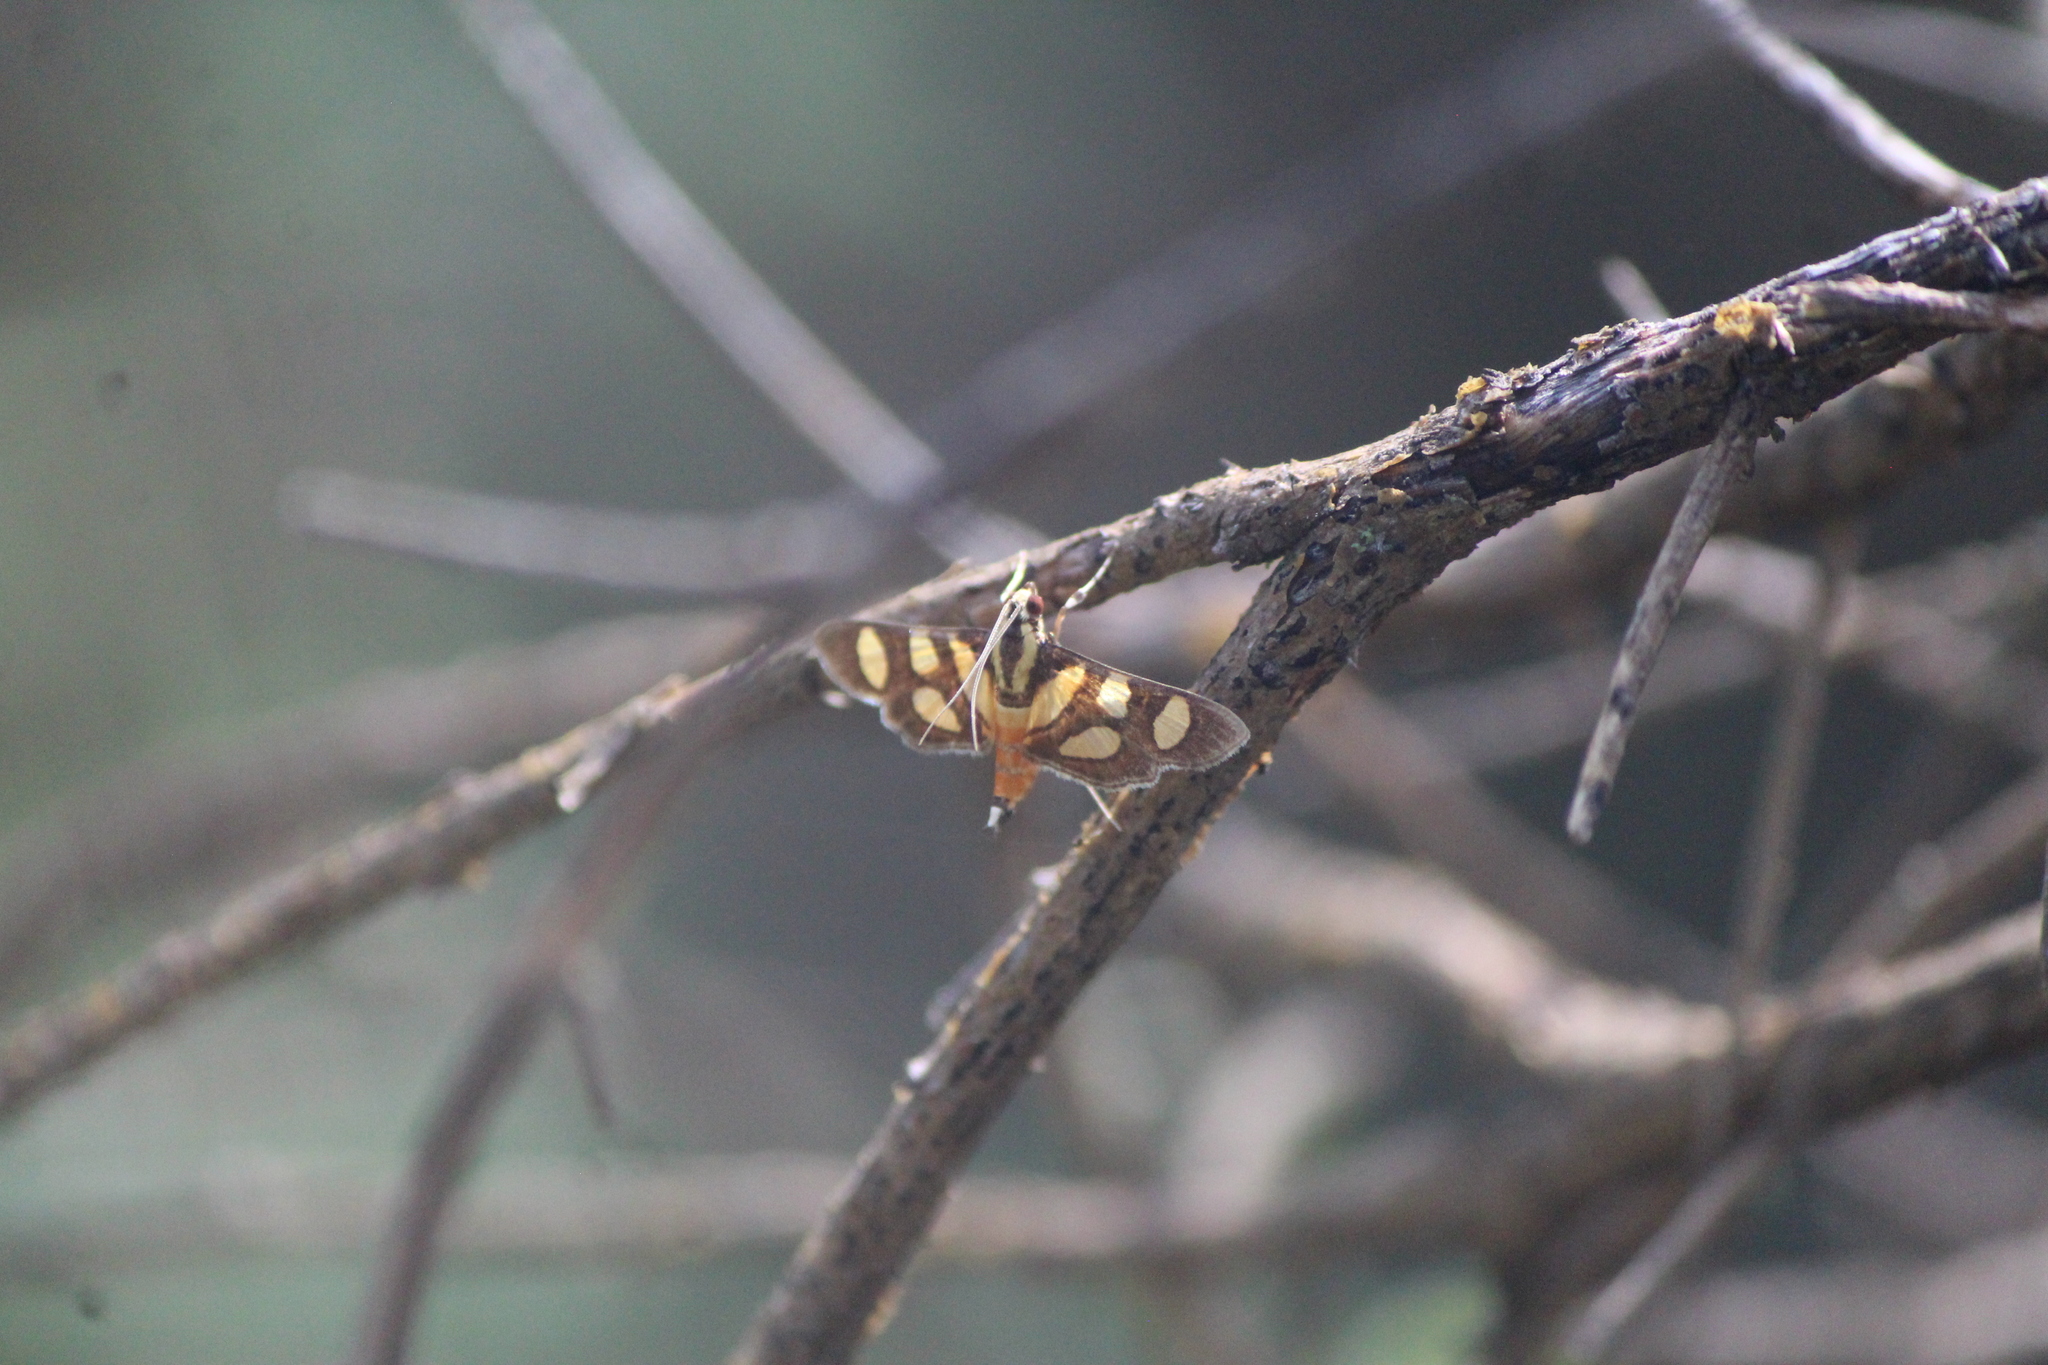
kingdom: Animalia
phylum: Arthropoda
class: Insecta
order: Lepidoptera
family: Crambidae
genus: Syngamia
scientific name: Syngamia florella
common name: Orange-spotted flower moth
